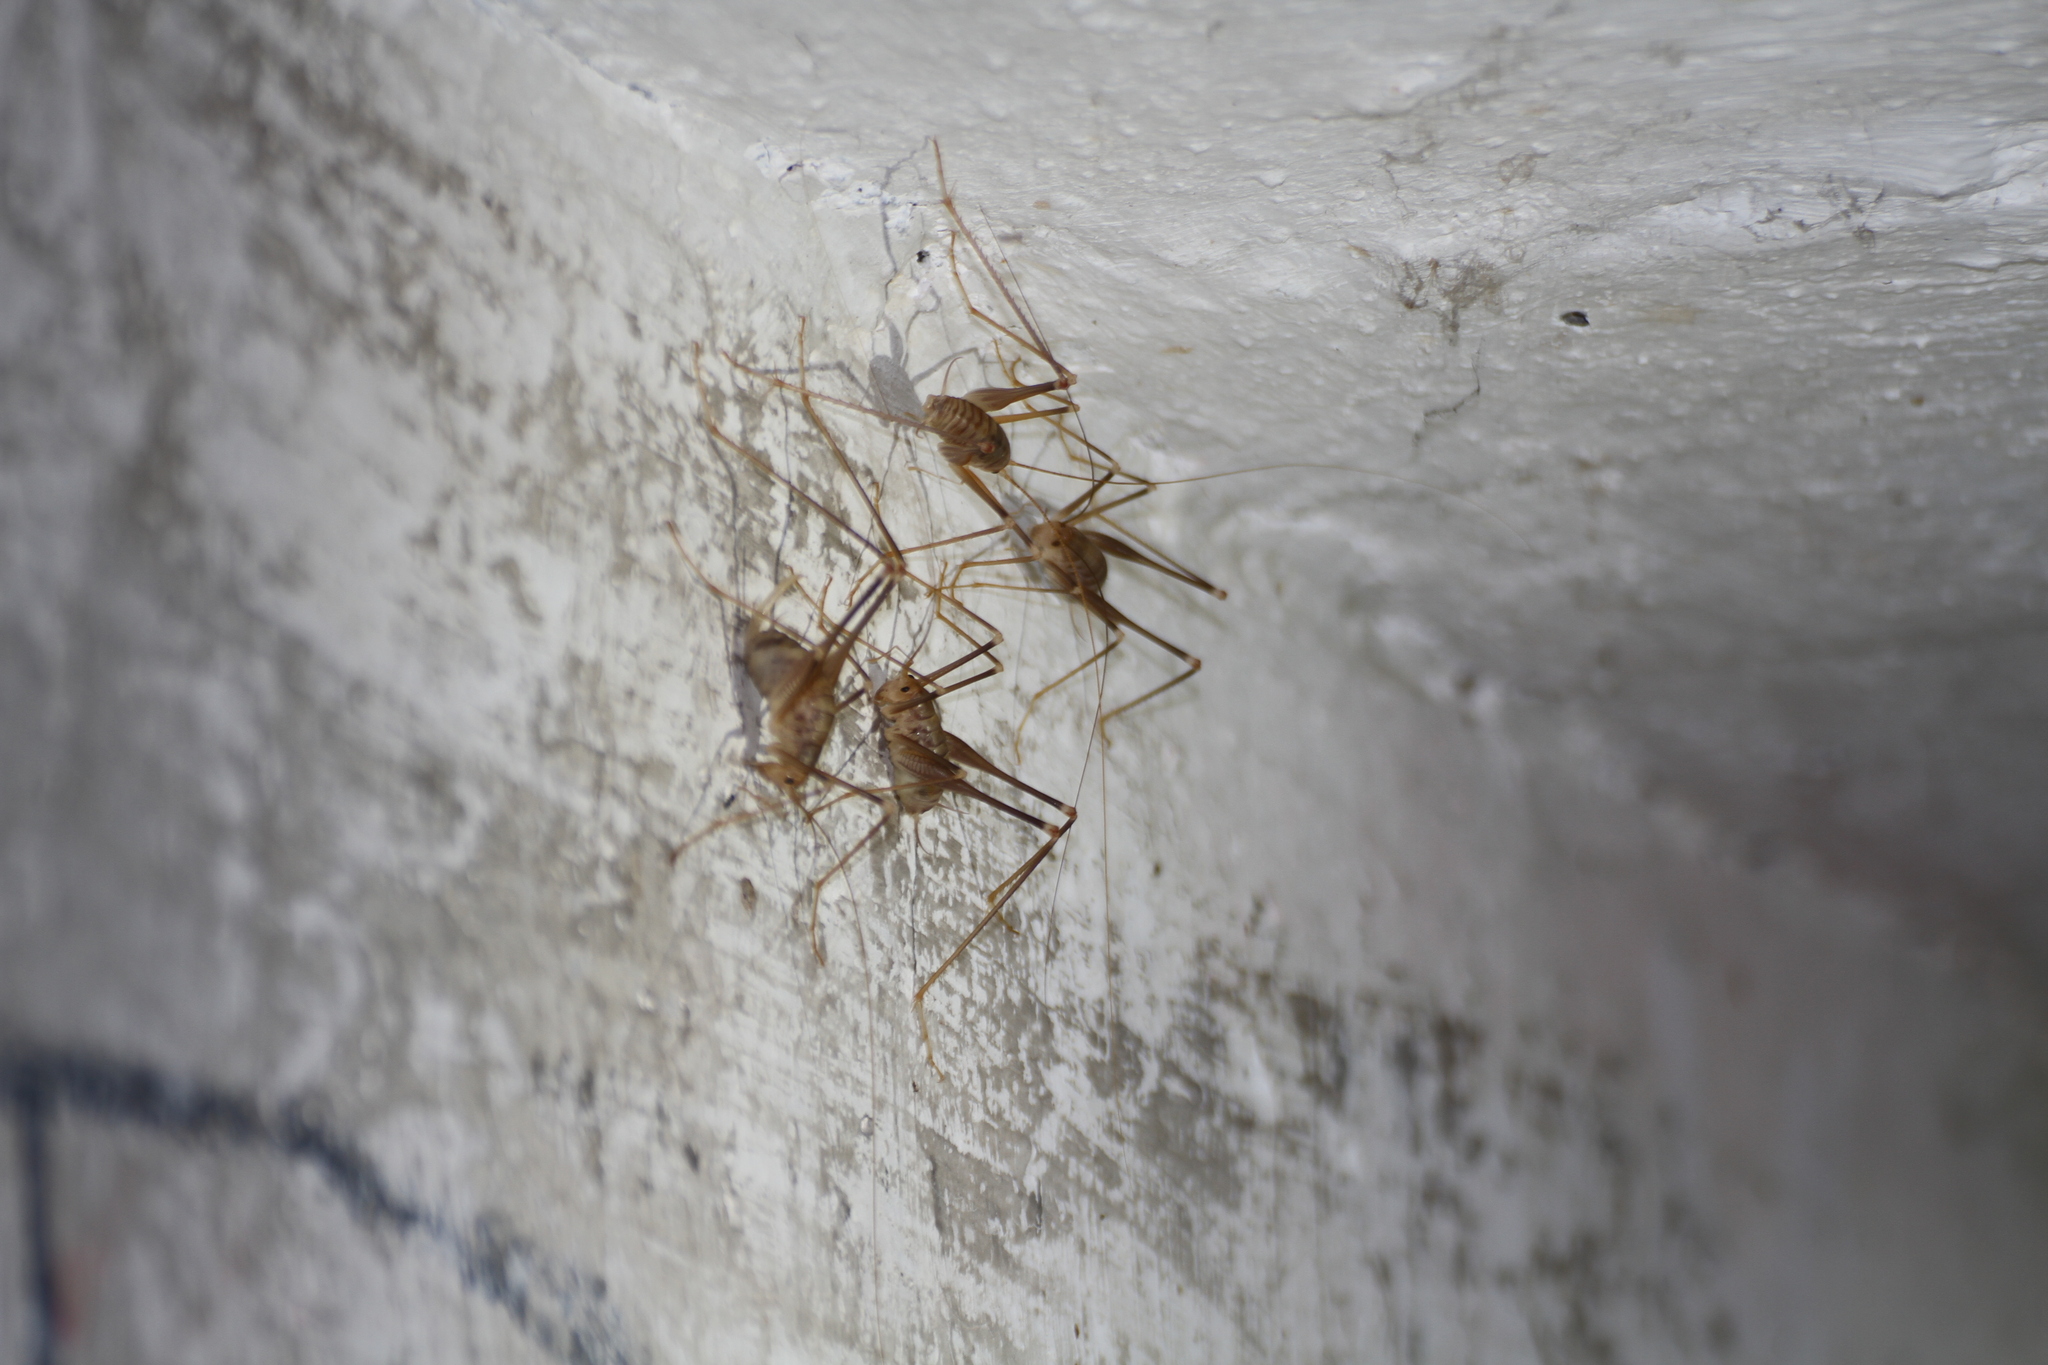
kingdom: Animalia
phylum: Arthropoda
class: Insecta
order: Orthoptera
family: Rhaphidophoridae
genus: Dolichopoda
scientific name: Dolichopoda azami
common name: Azam's cave-cricket
